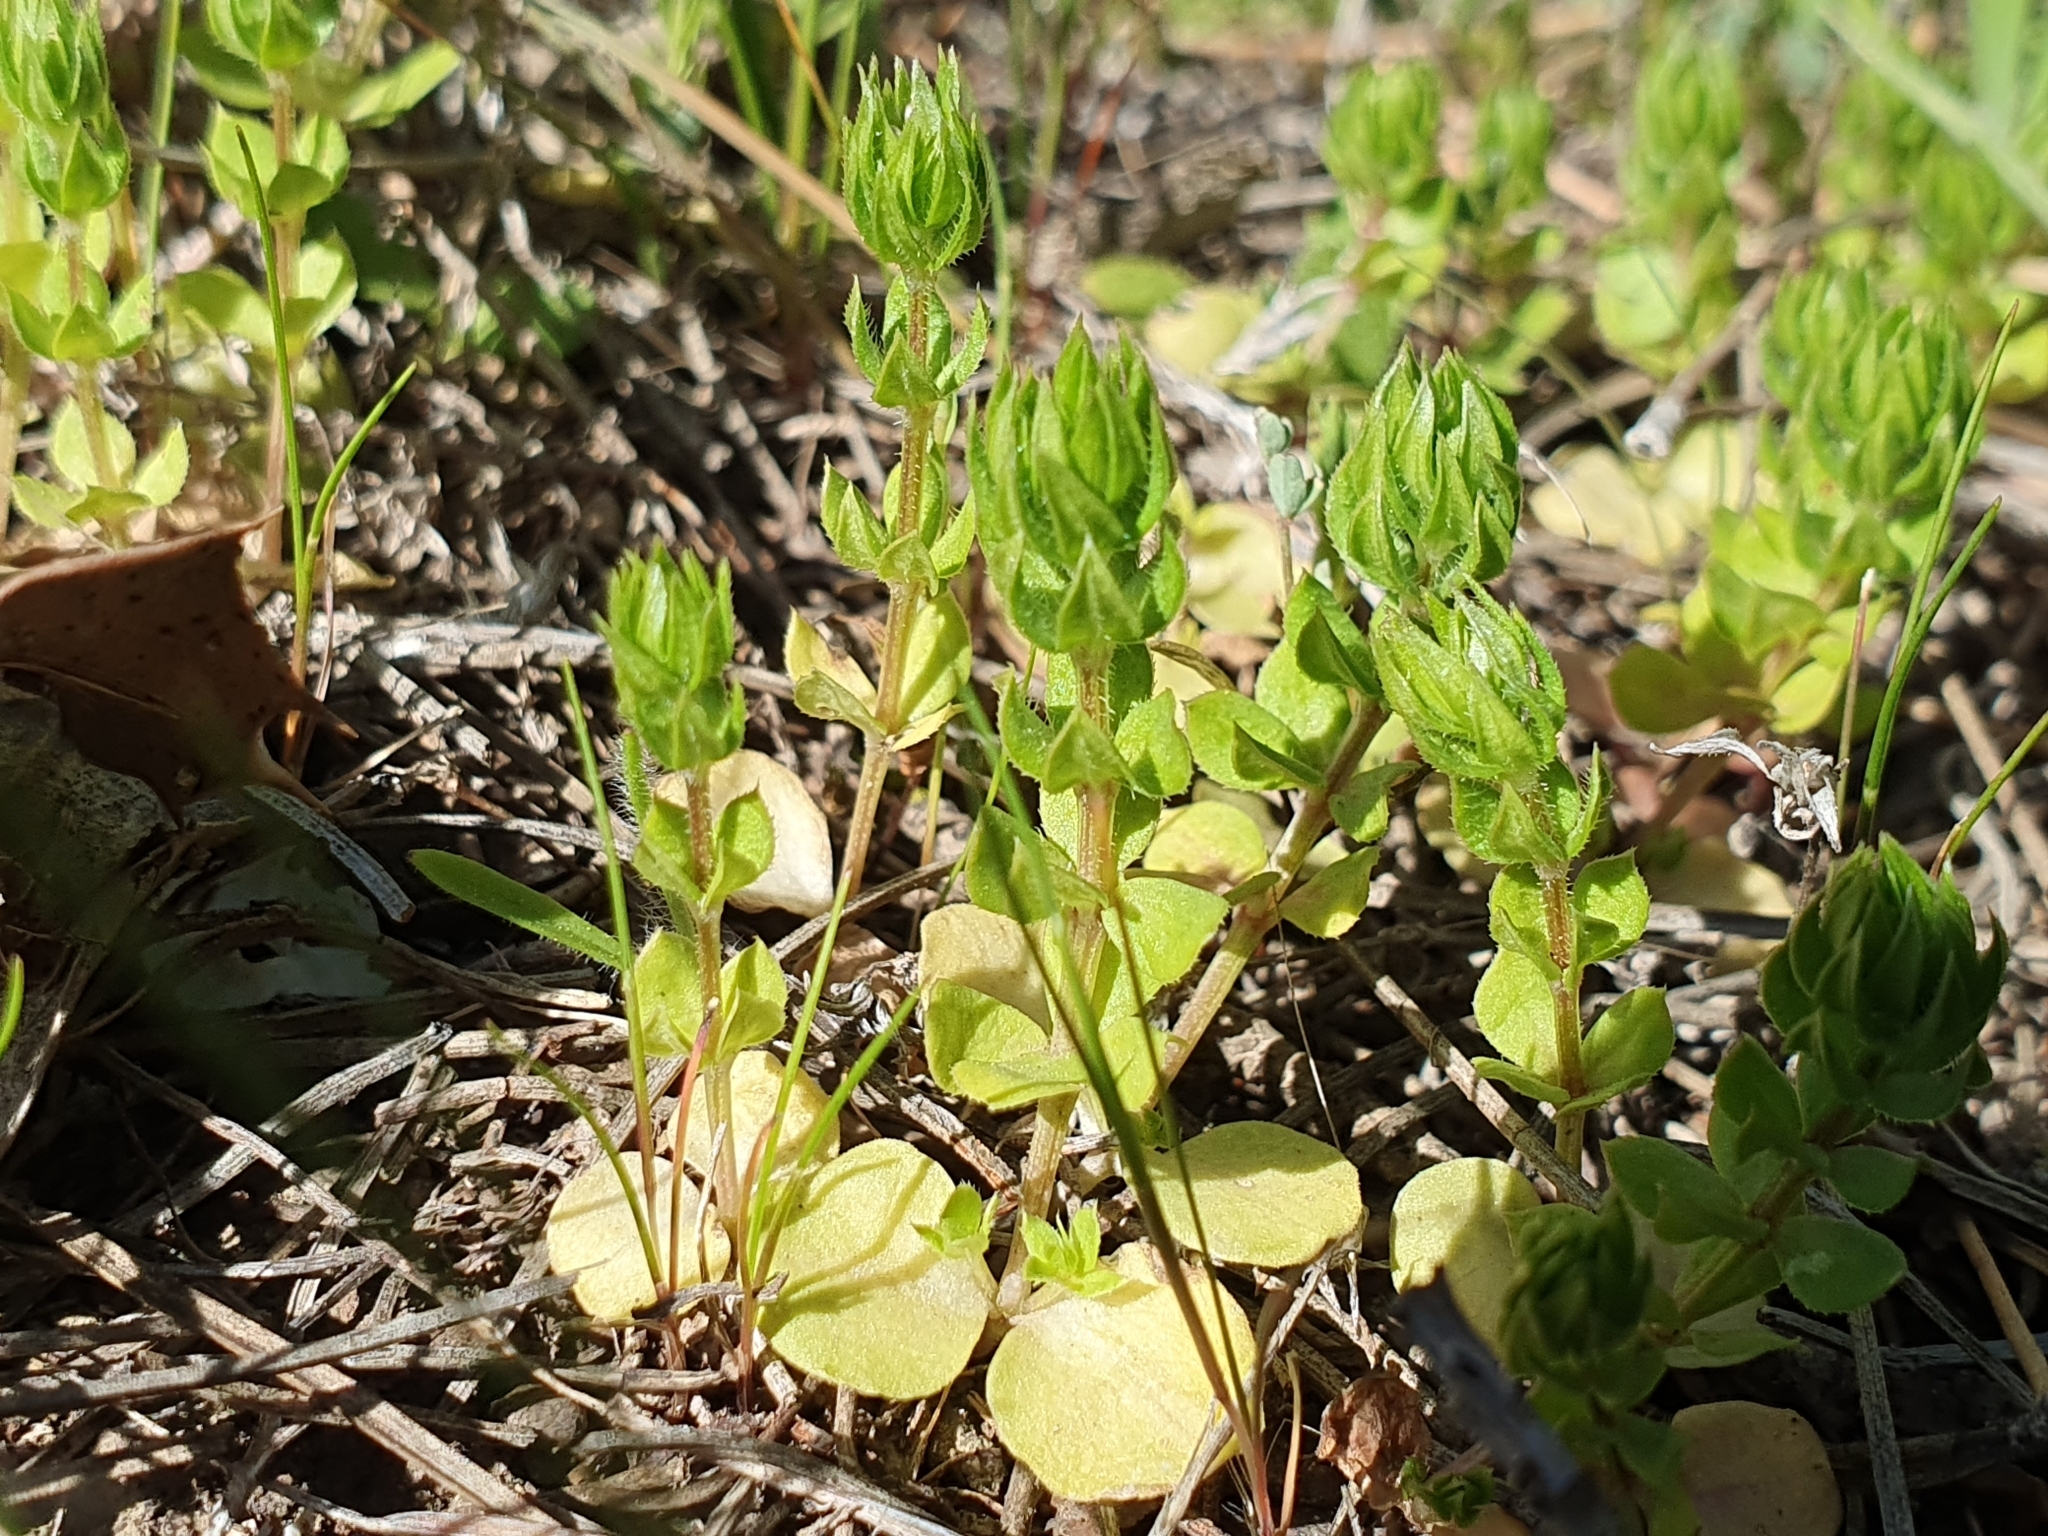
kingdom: Plantae
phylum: Tracheophyta
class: Magnoliopsida
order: Gentianales
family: Rubiaceae
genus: Sherardia
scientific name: Sherardia arvensis
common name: Field madder
